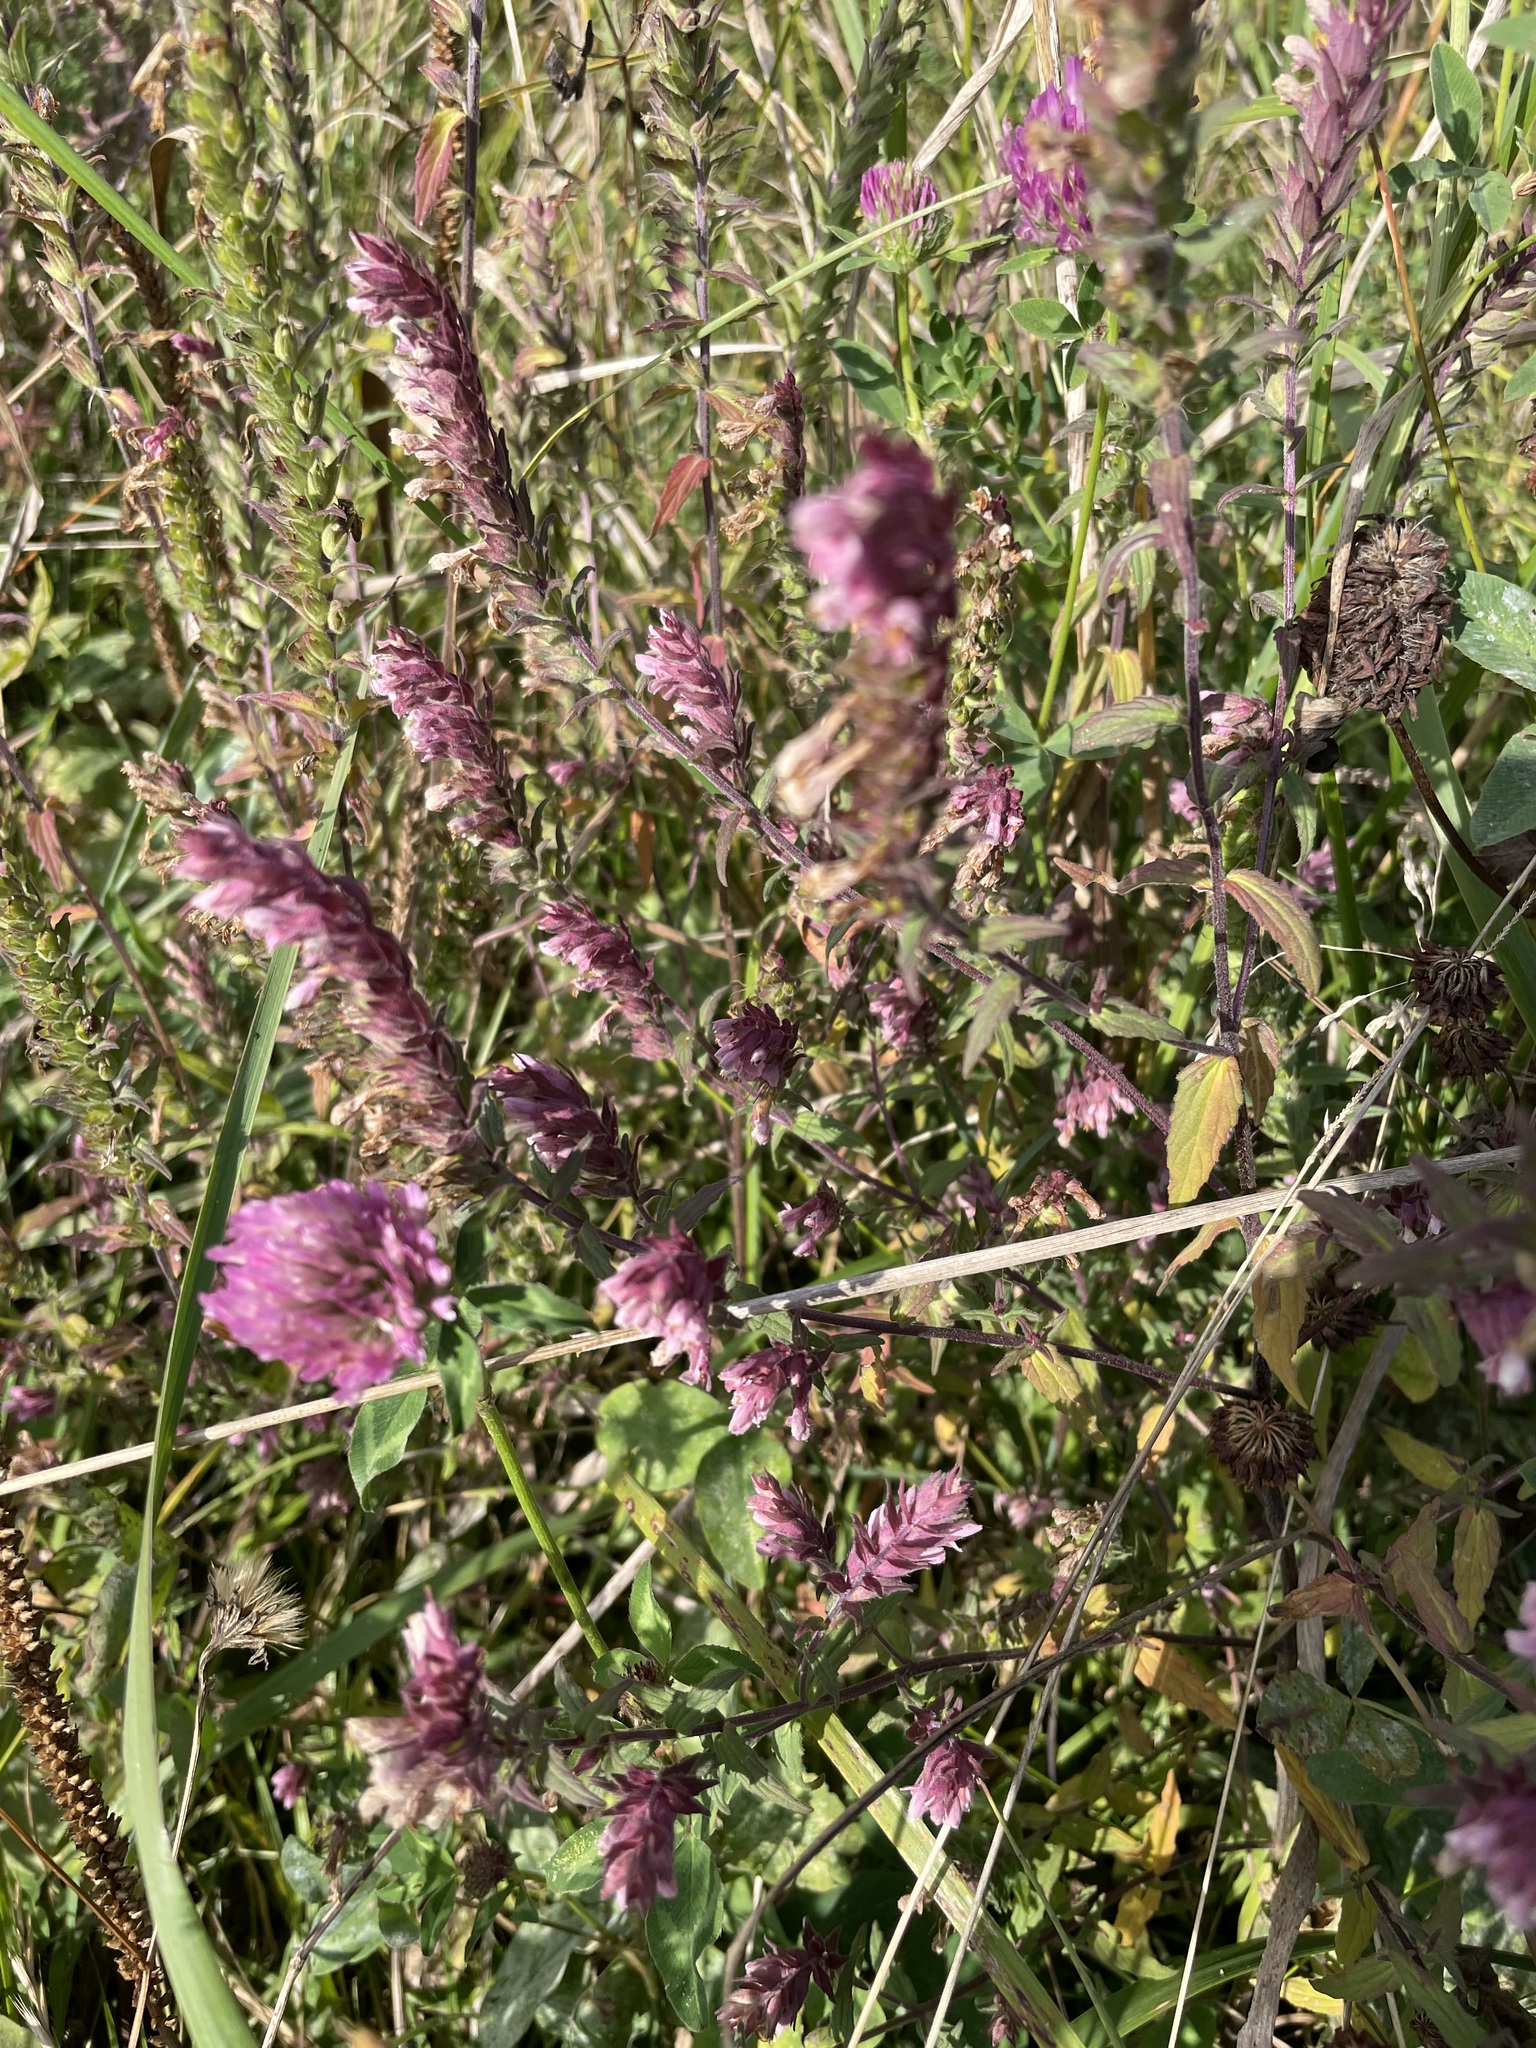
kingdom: Plantae
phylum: Tracheophyta
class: Magnoliopsida
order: Lamiales
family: Orobanchaceae
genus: Odontites
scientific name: Odontites vulgaris
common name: Broomrape
